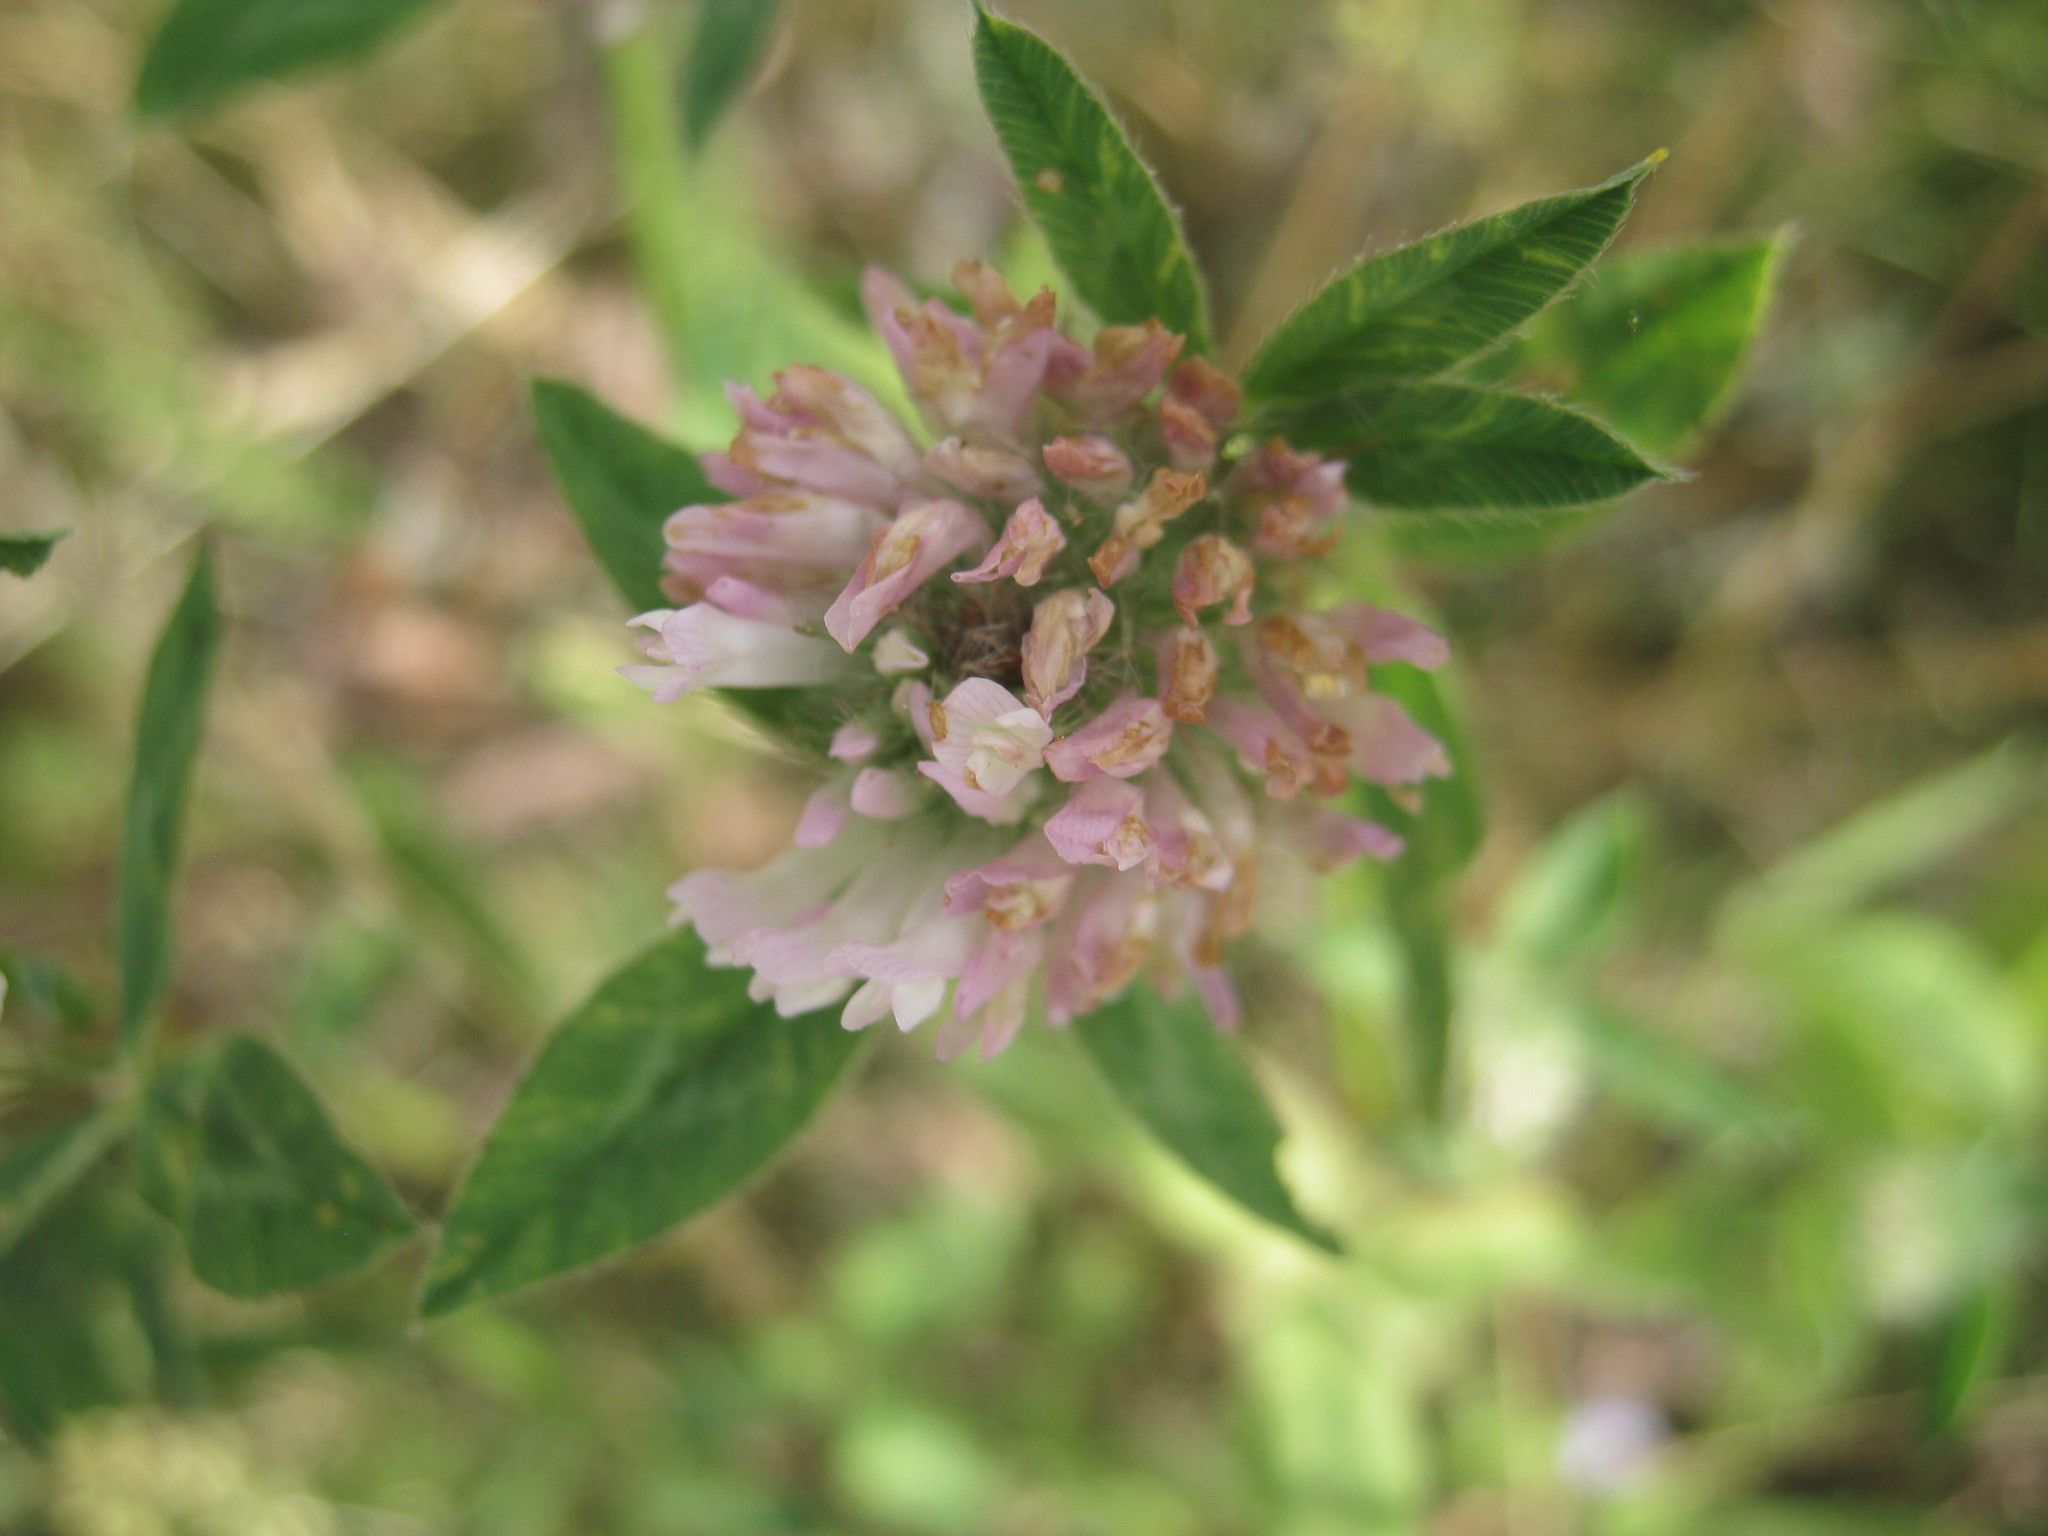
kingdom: Plantae
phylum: Tracheophyta
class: Magnoliopsida
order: Fabales
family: Fabaceae
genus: Trifolium
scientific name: Trifolium pratense
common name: Red clover
